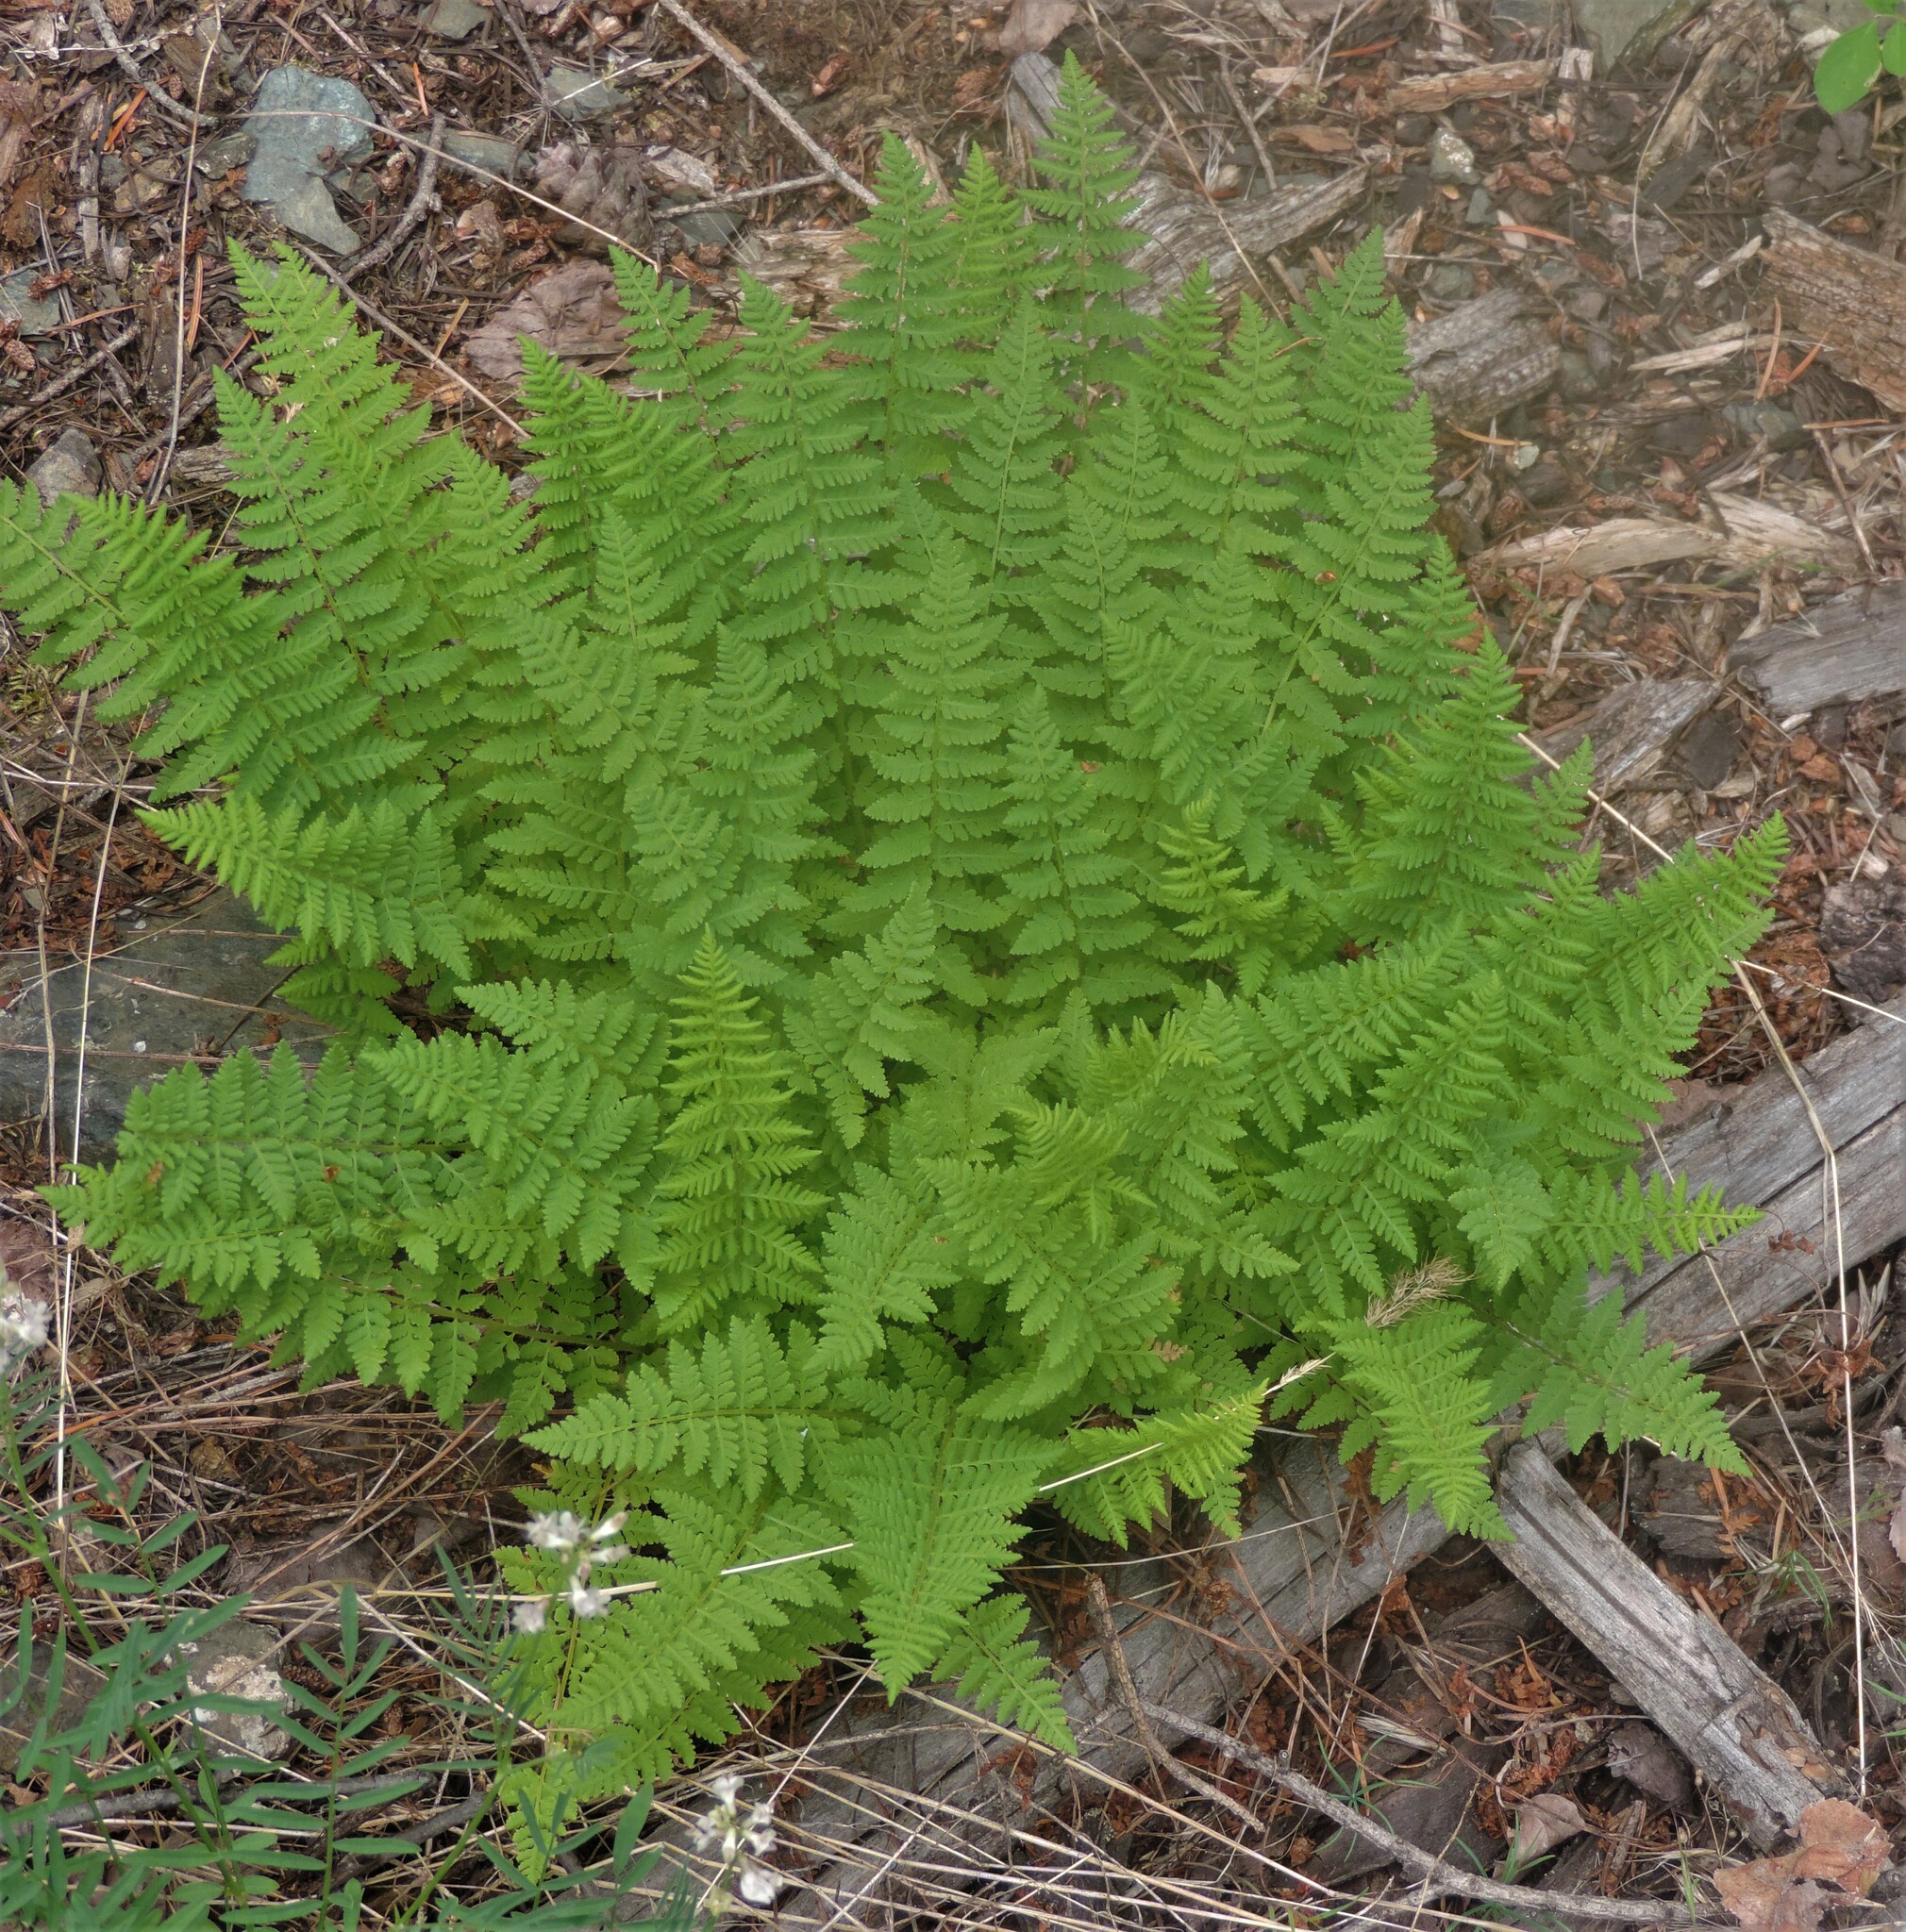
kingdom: Plantae
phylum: Tracheophyta
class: Polypodiopsida
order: Polypodiales
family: Woodsiaceae
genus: Physematium
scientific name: Physematium scopulinum
